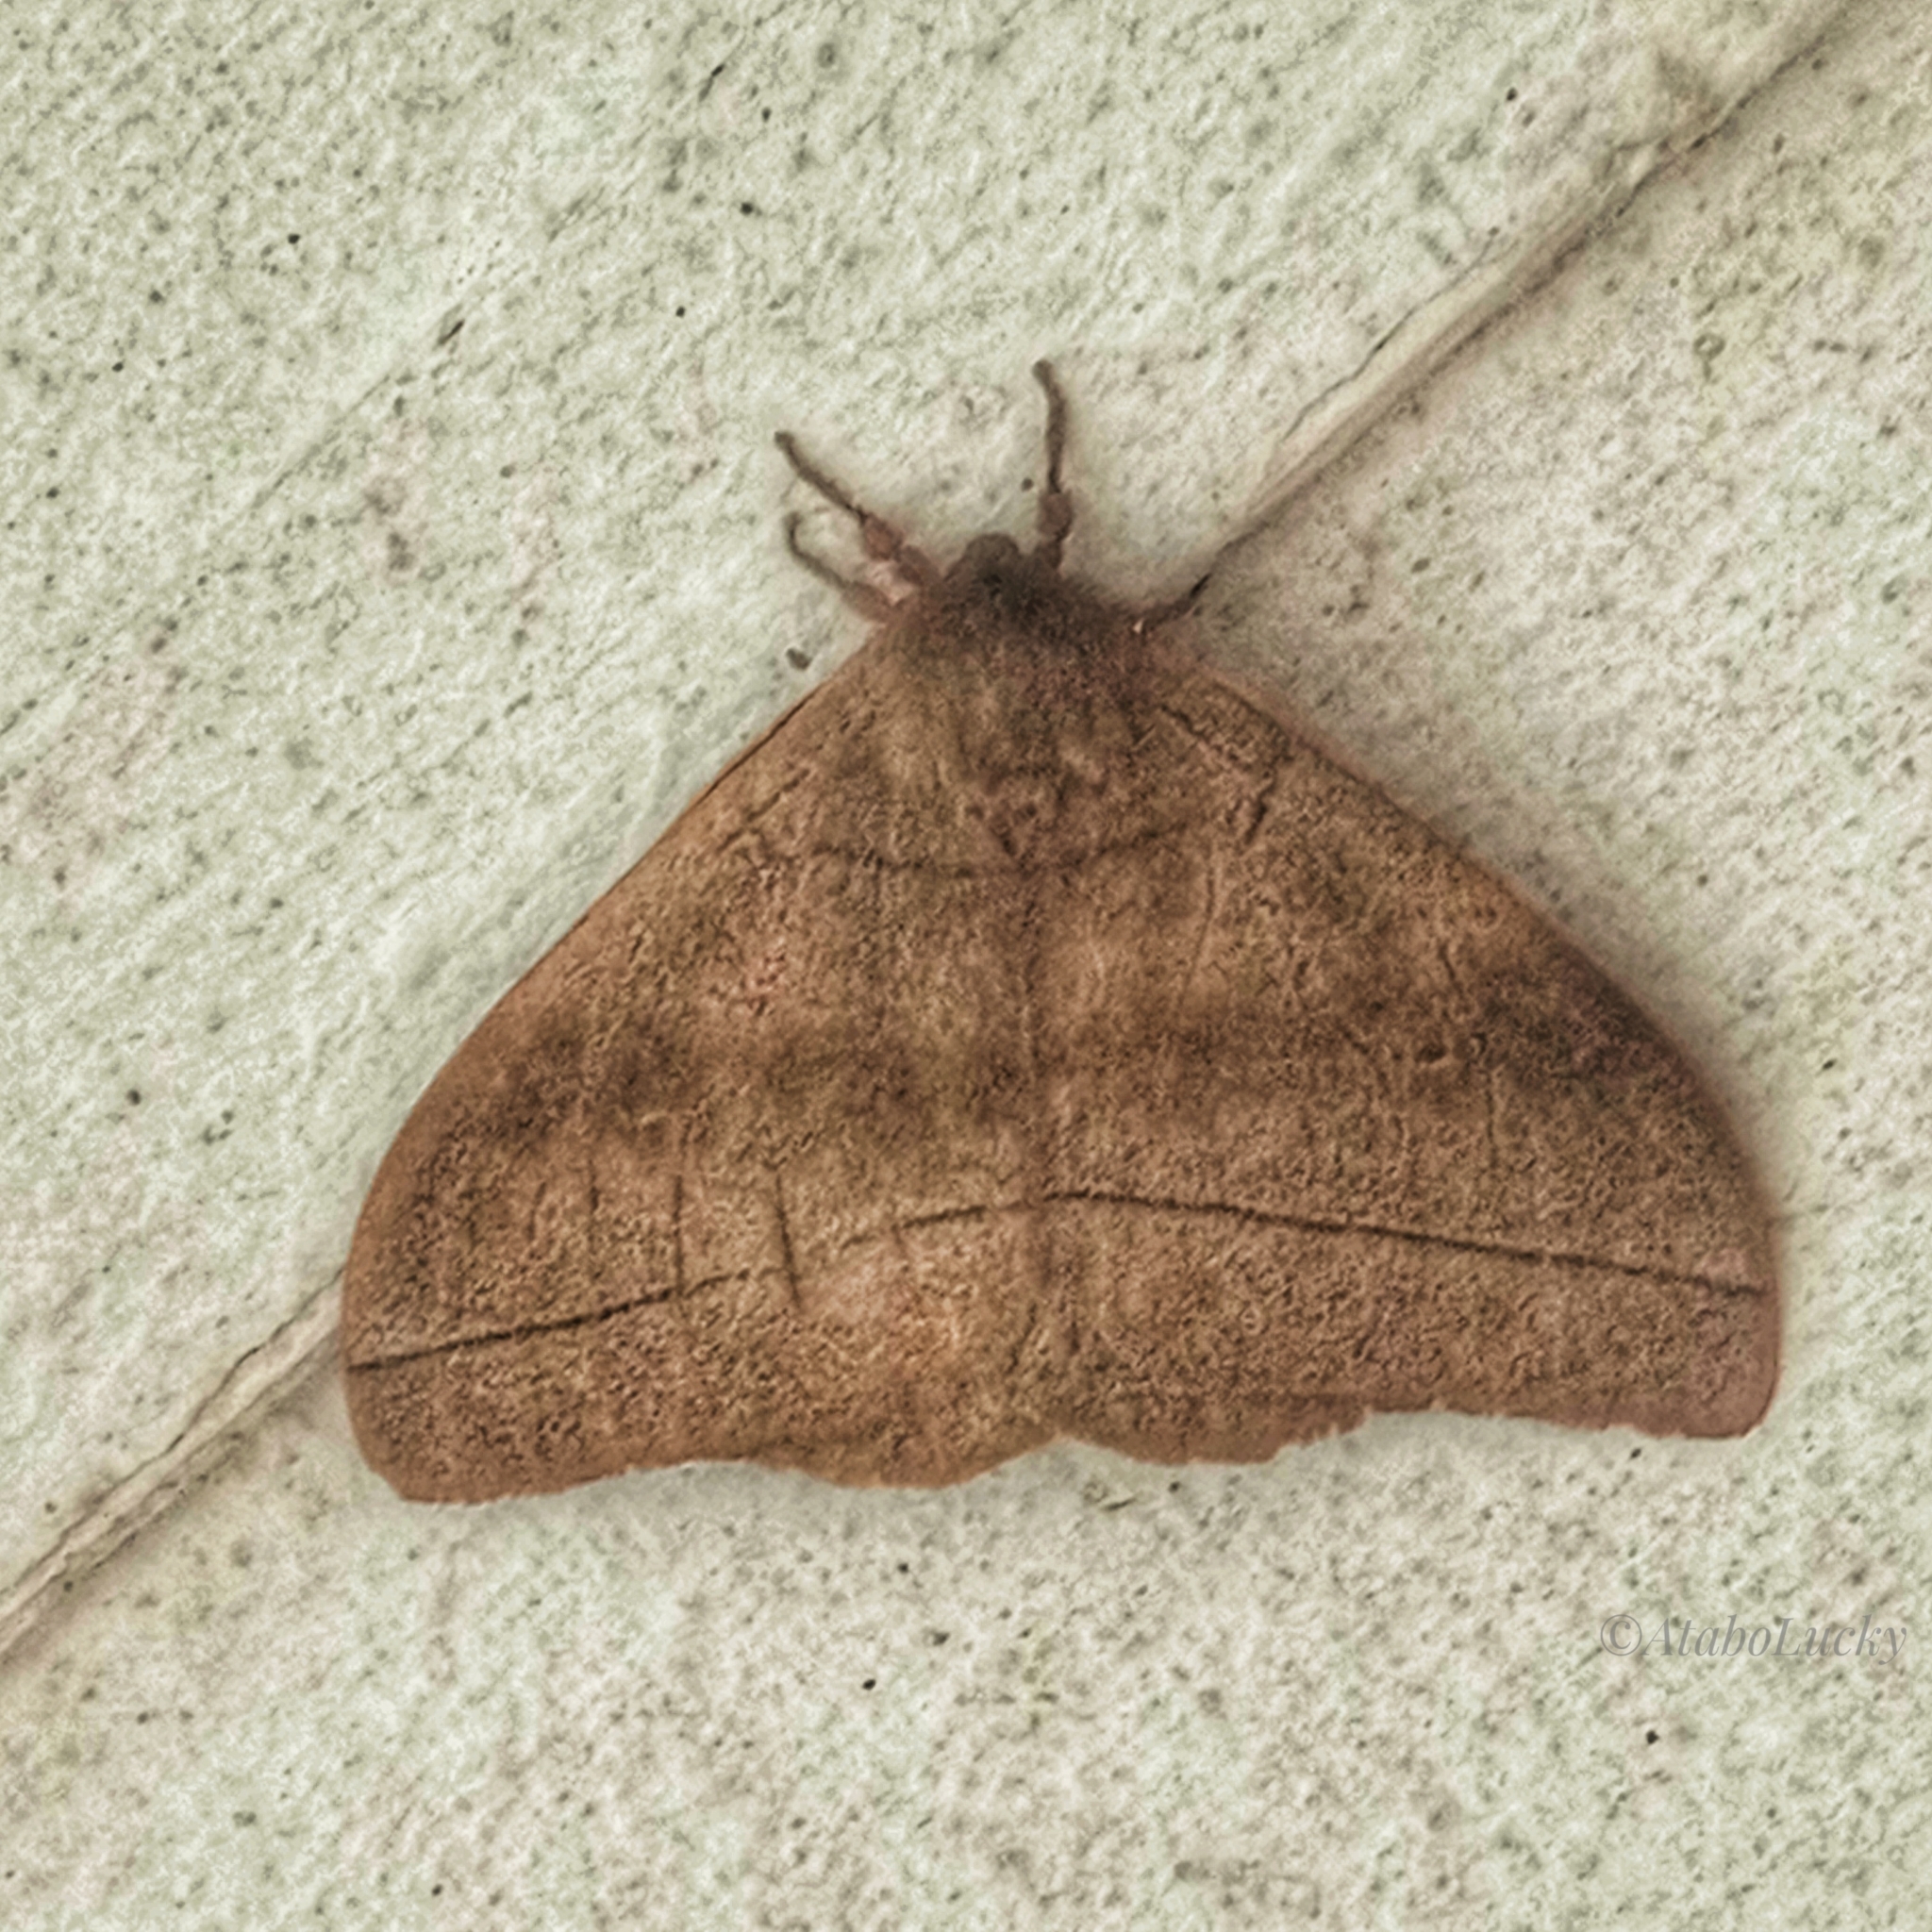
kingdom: Animalia
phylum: Arthropoda
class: Insecta
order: Lepidoptera
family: Saturniidae
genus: Gonimbrasia
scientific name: Gonimbrasia hecate
